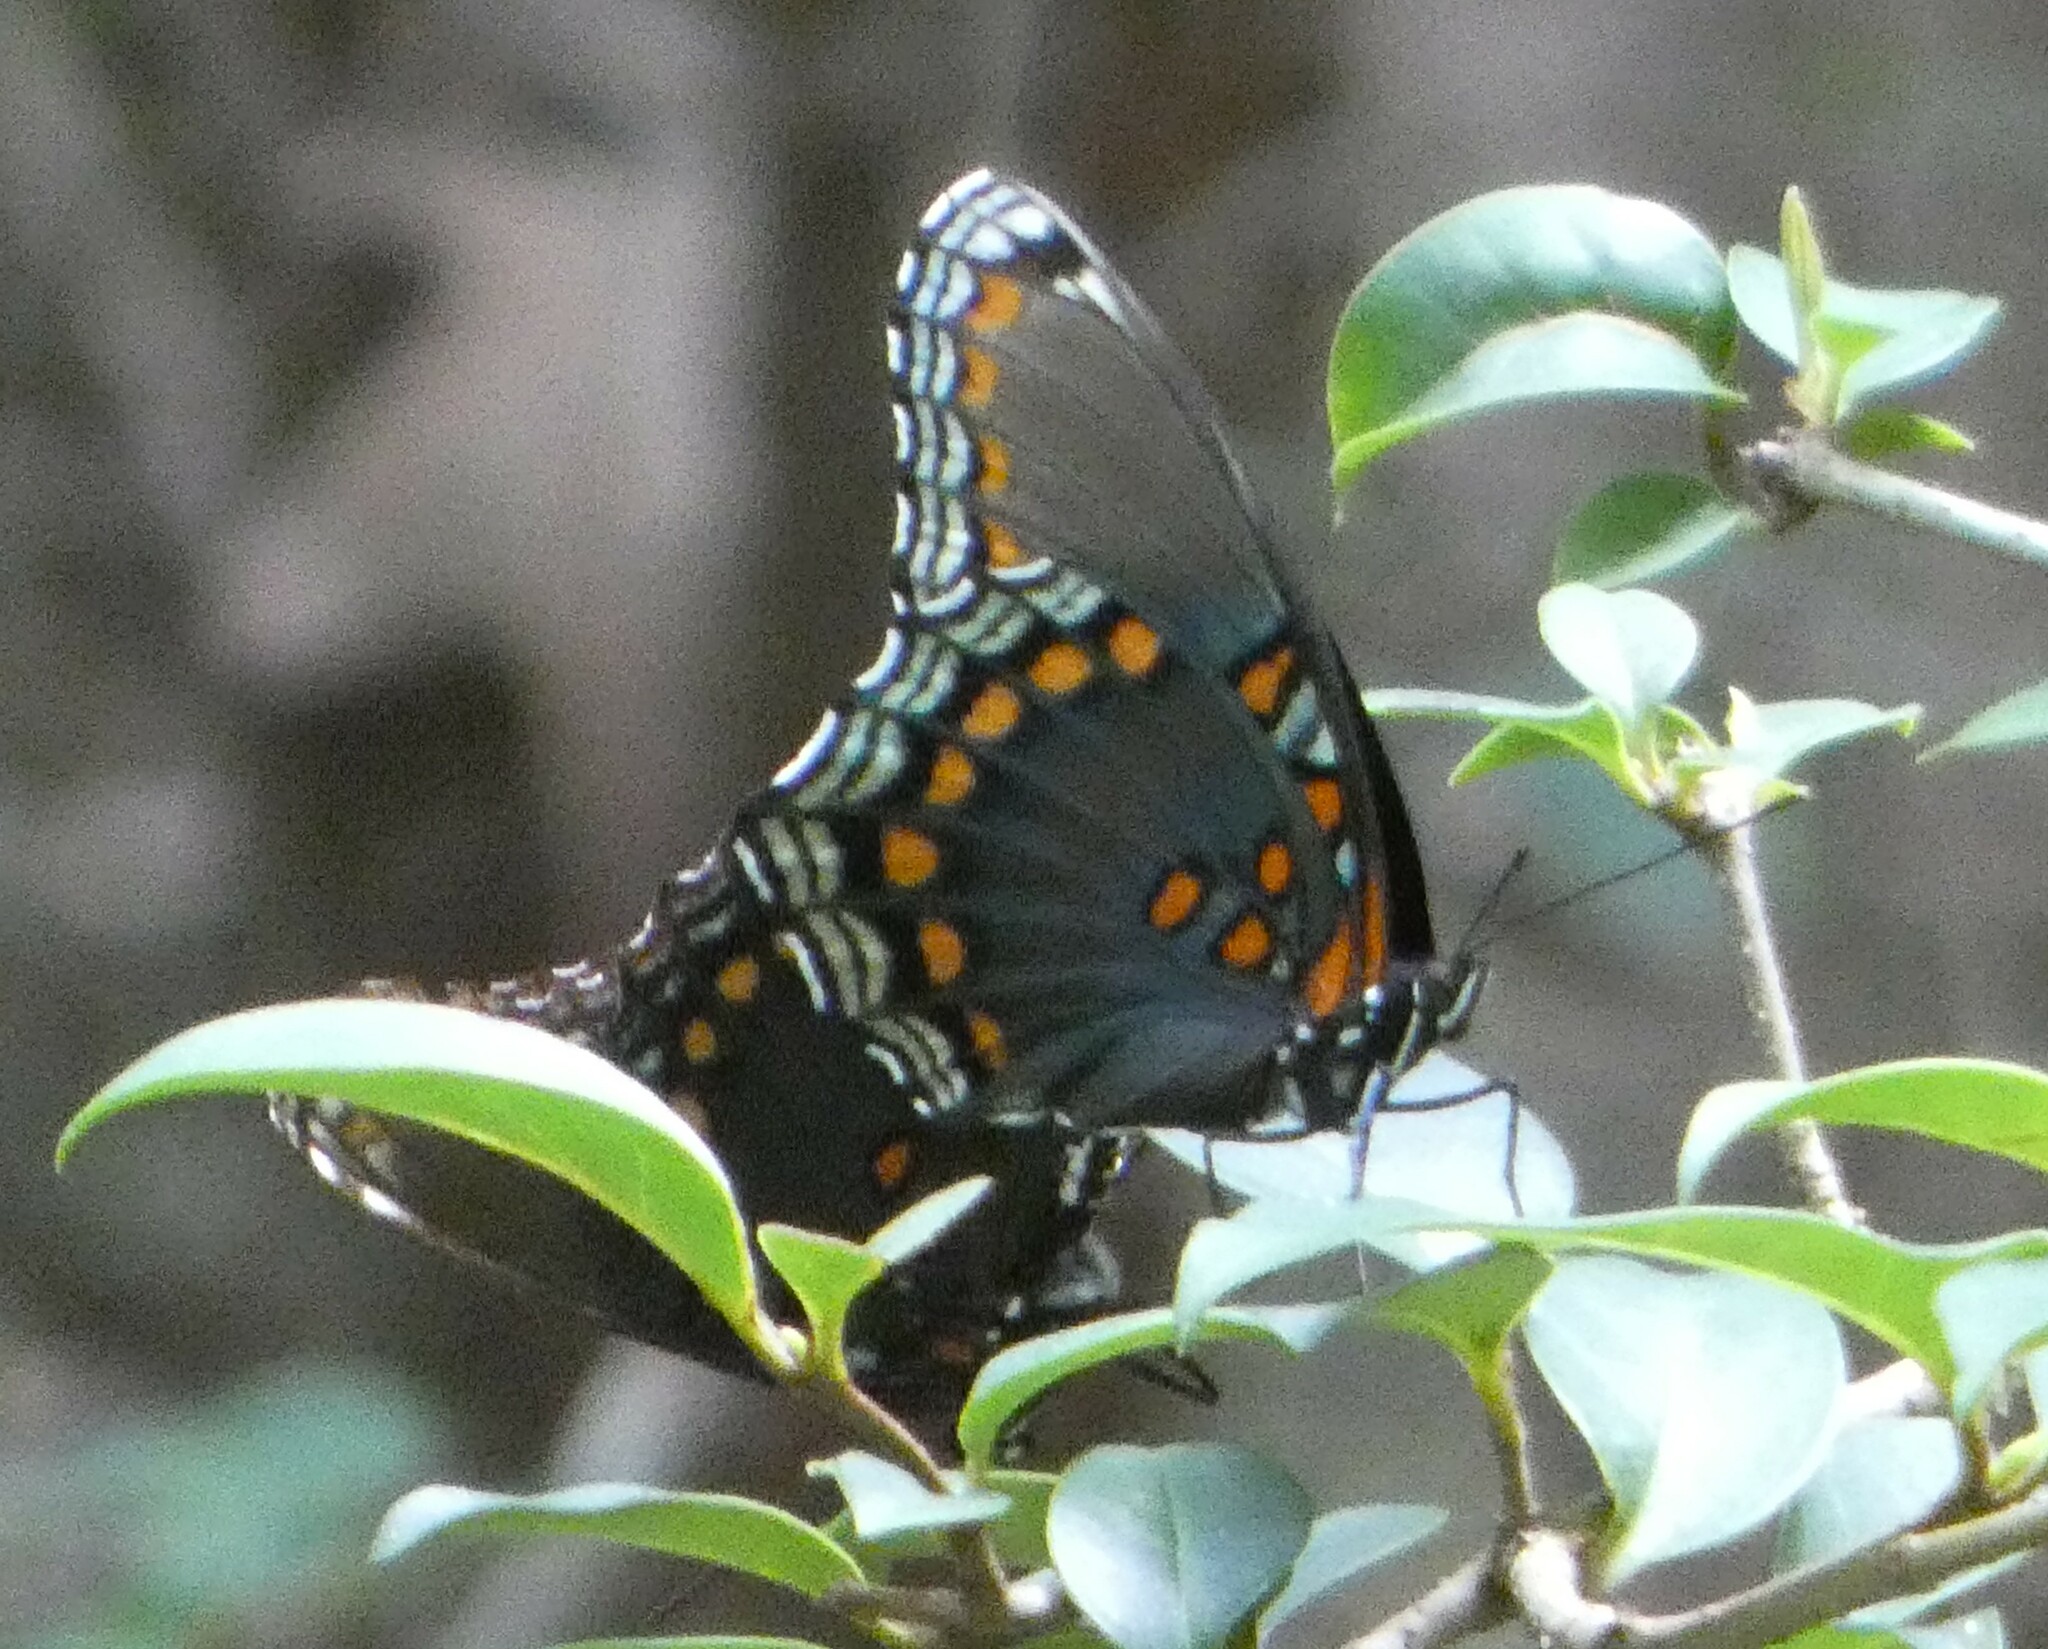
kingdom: Animalia
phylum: Arthropoda
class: Insecta
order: Lepidoptera
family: Nymphalidae
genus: Limenitis
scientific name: Limenitis astyanax
